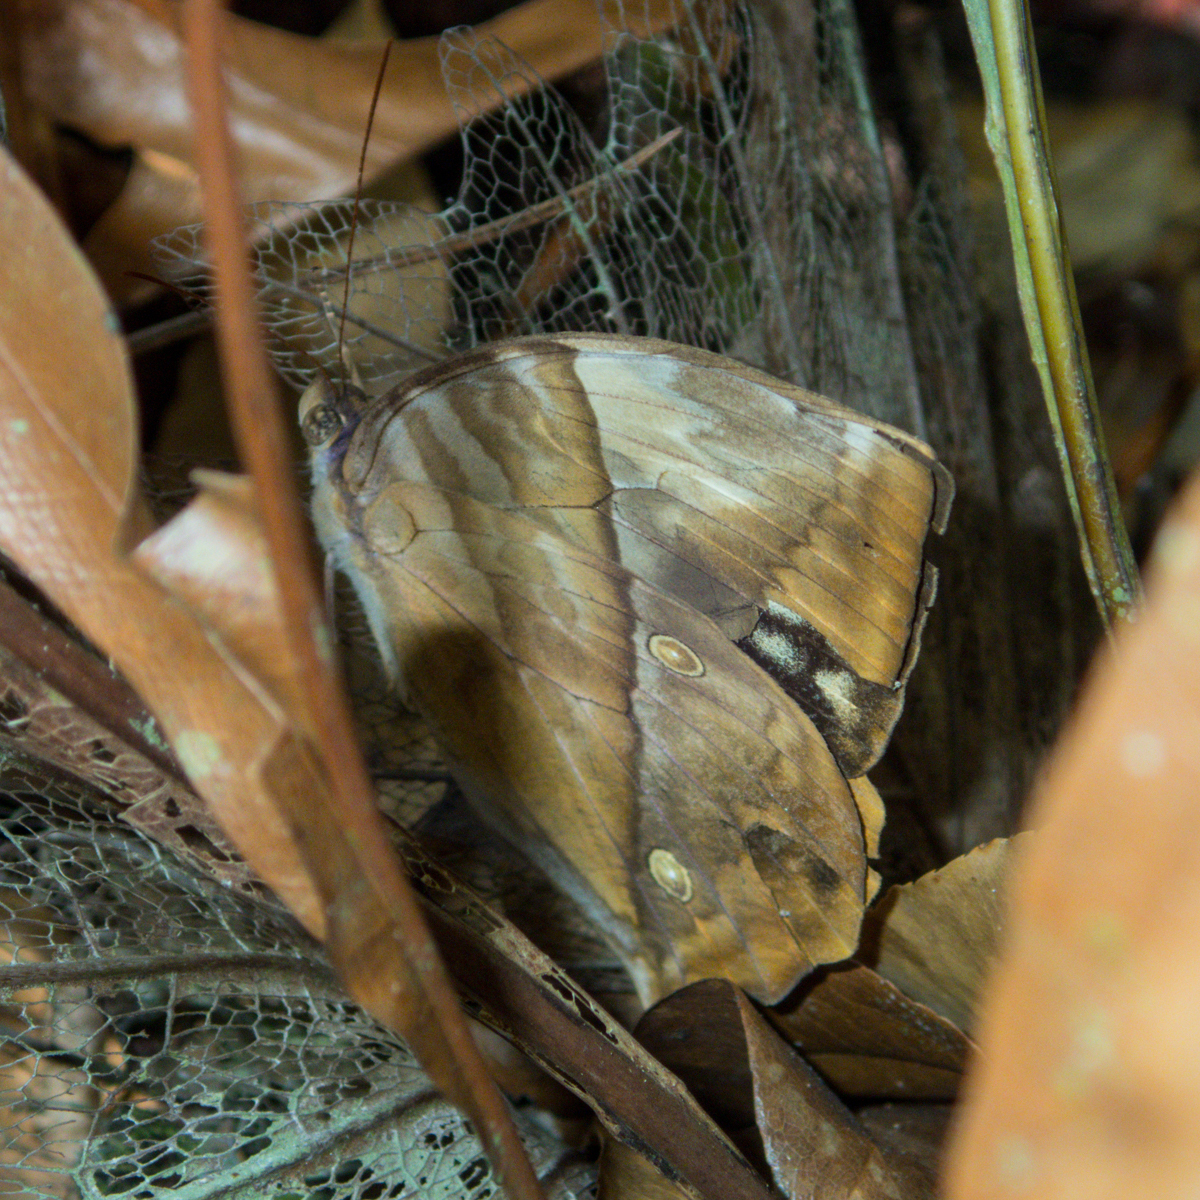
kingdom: Animalia
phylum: Arthropoda
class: Insecta
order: Lepidoptera
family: Nymphalidae
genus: Zeuxidia
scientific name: Zeuxidia
